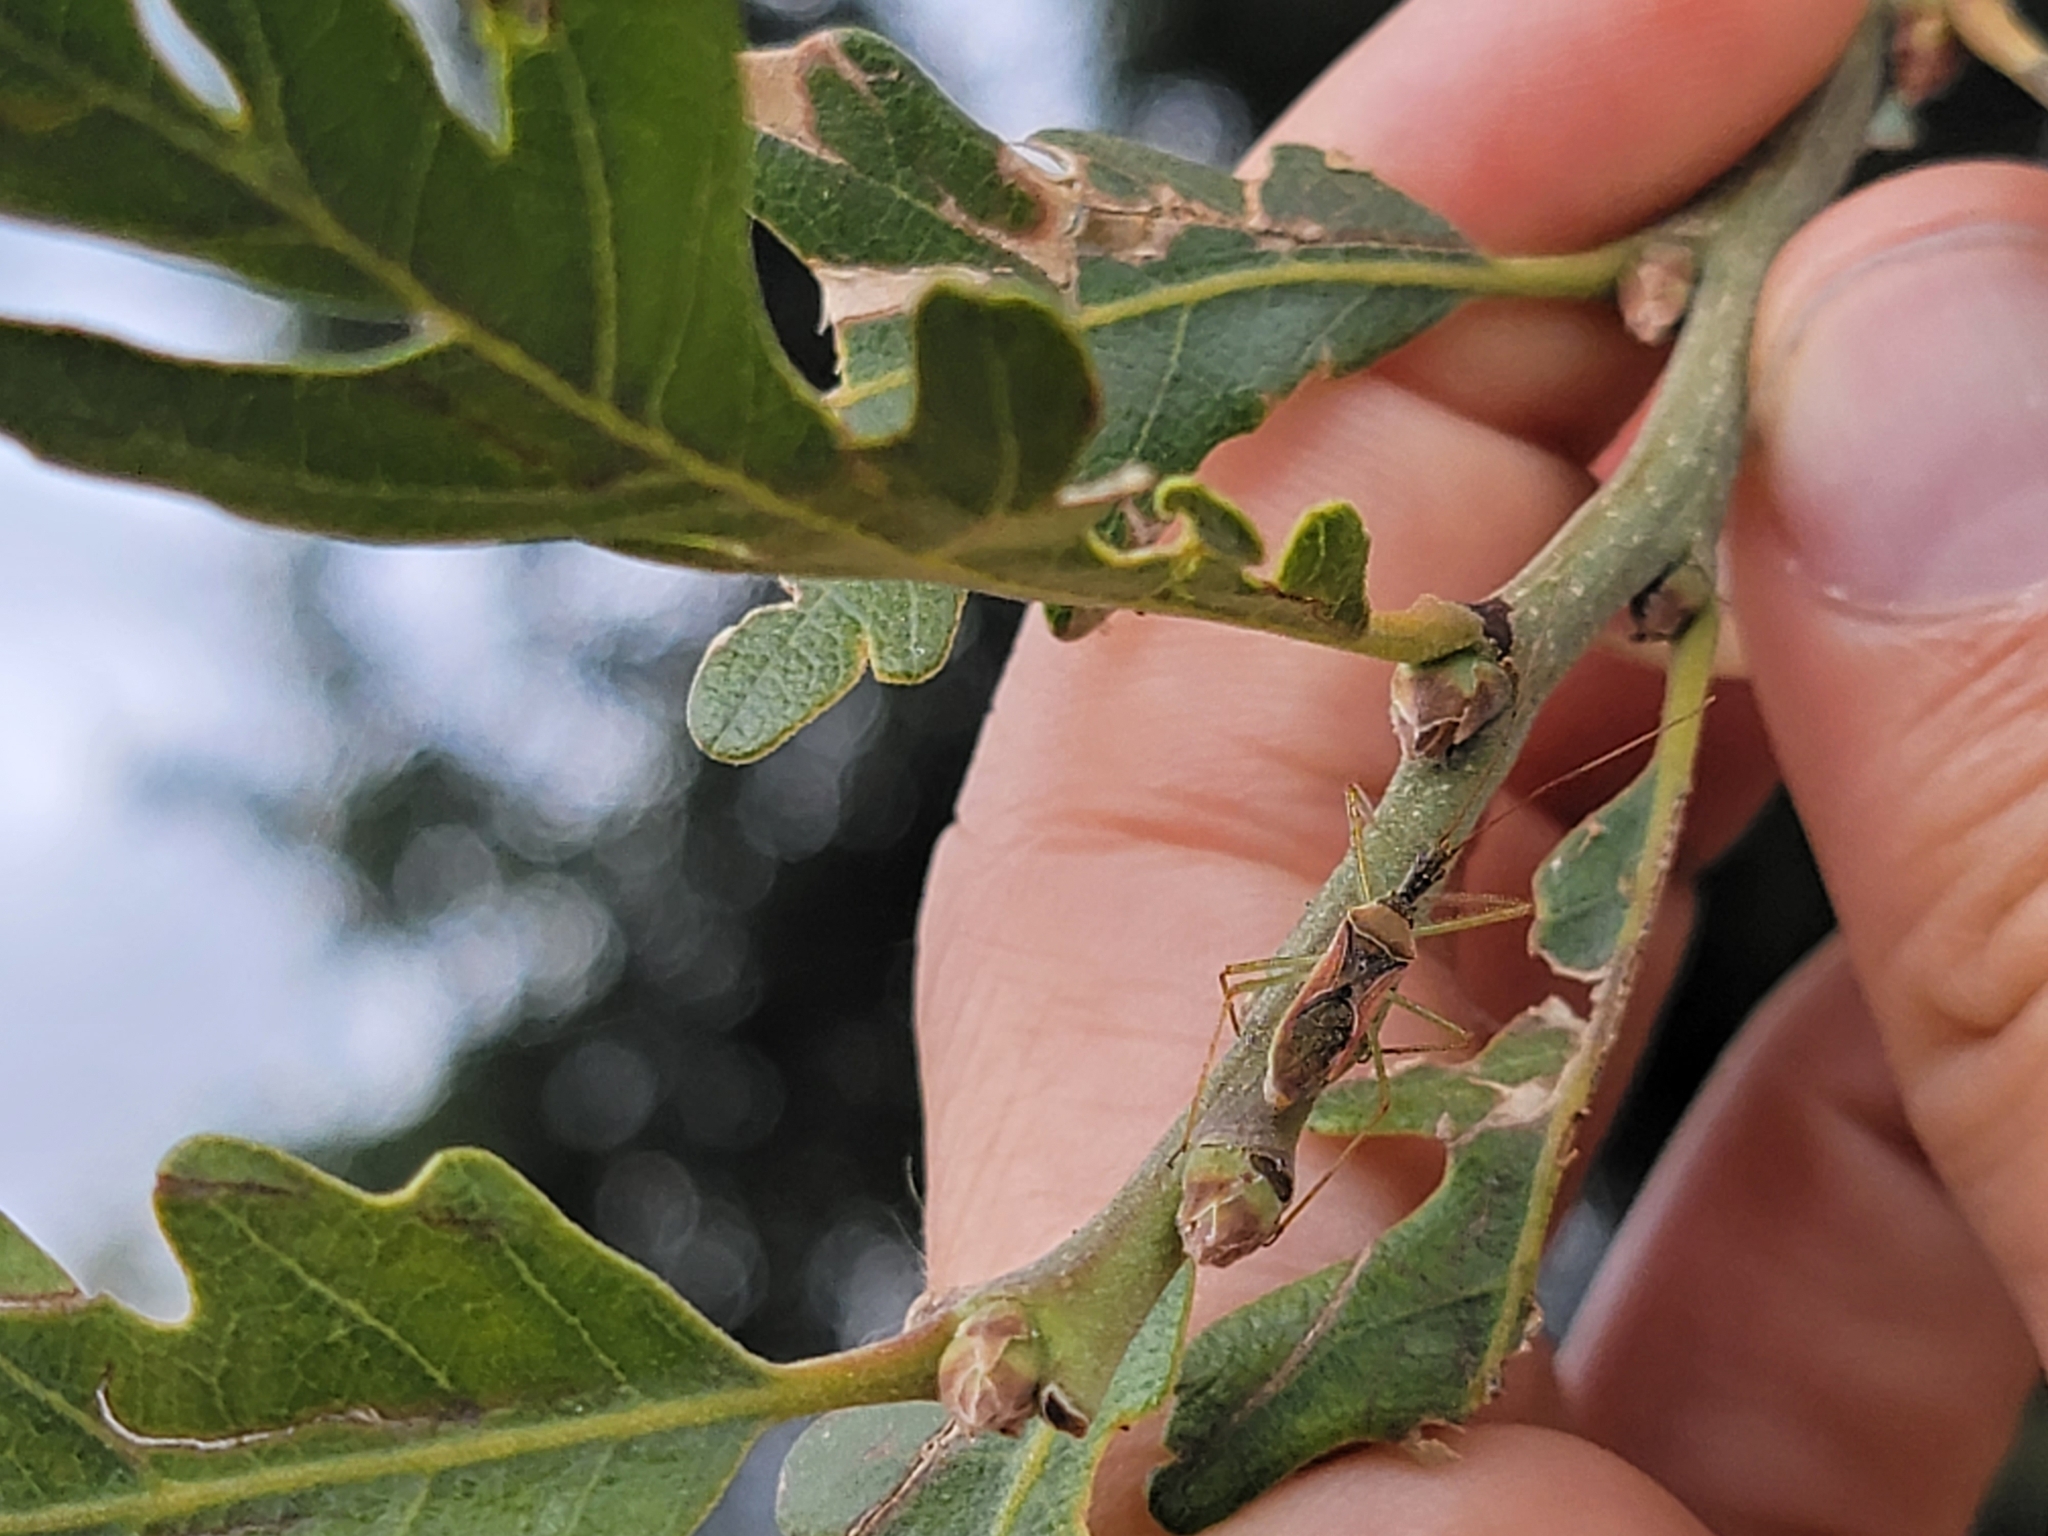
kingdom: Animalia
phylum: Arthropoda
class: Insecta
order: Hemiptera
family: Reduviidae
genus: Zelus
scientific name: Zelus renardii
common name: Assassin bug
